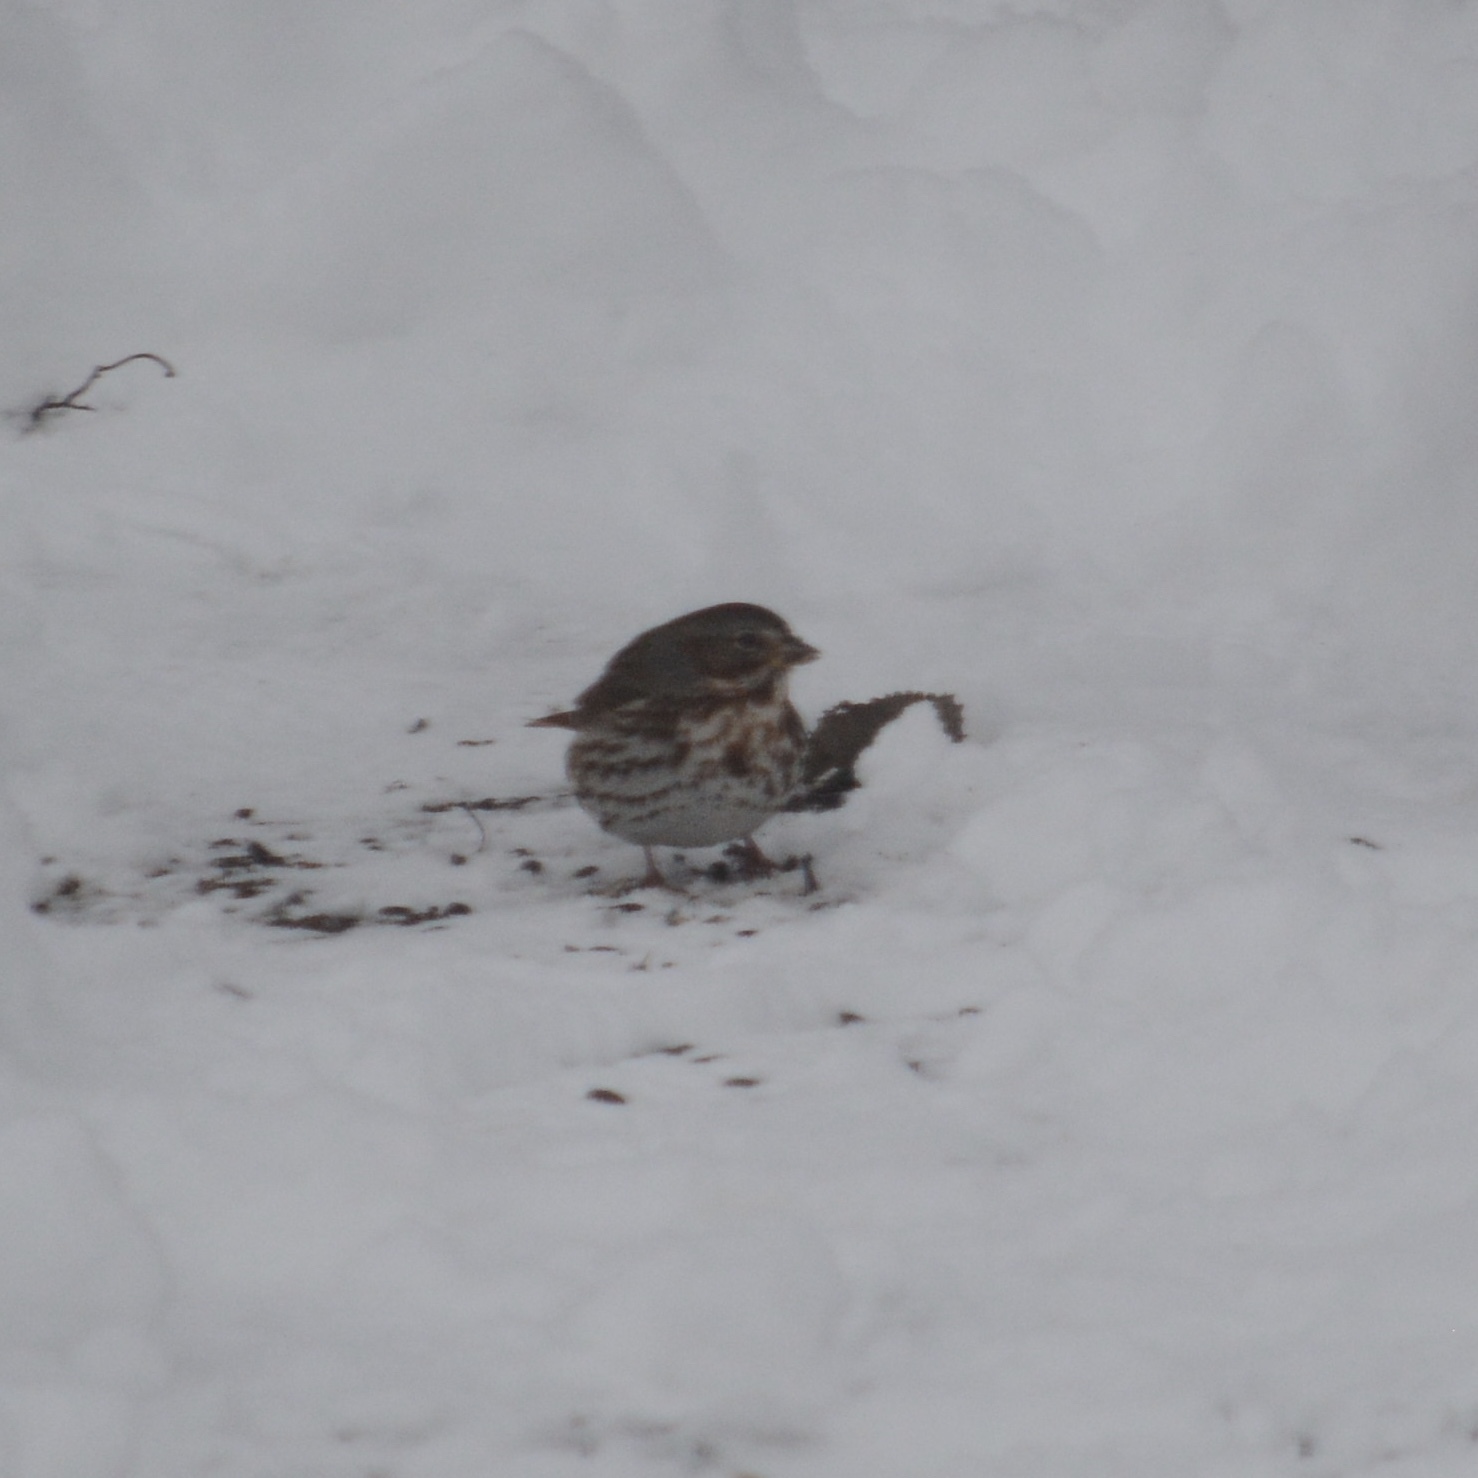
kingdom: Animalia
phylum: Chordata
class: Aves
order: Passeriformes
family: Passerellidae
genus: Passerella
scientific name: Passerella iliaca
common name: Fox sparrow
